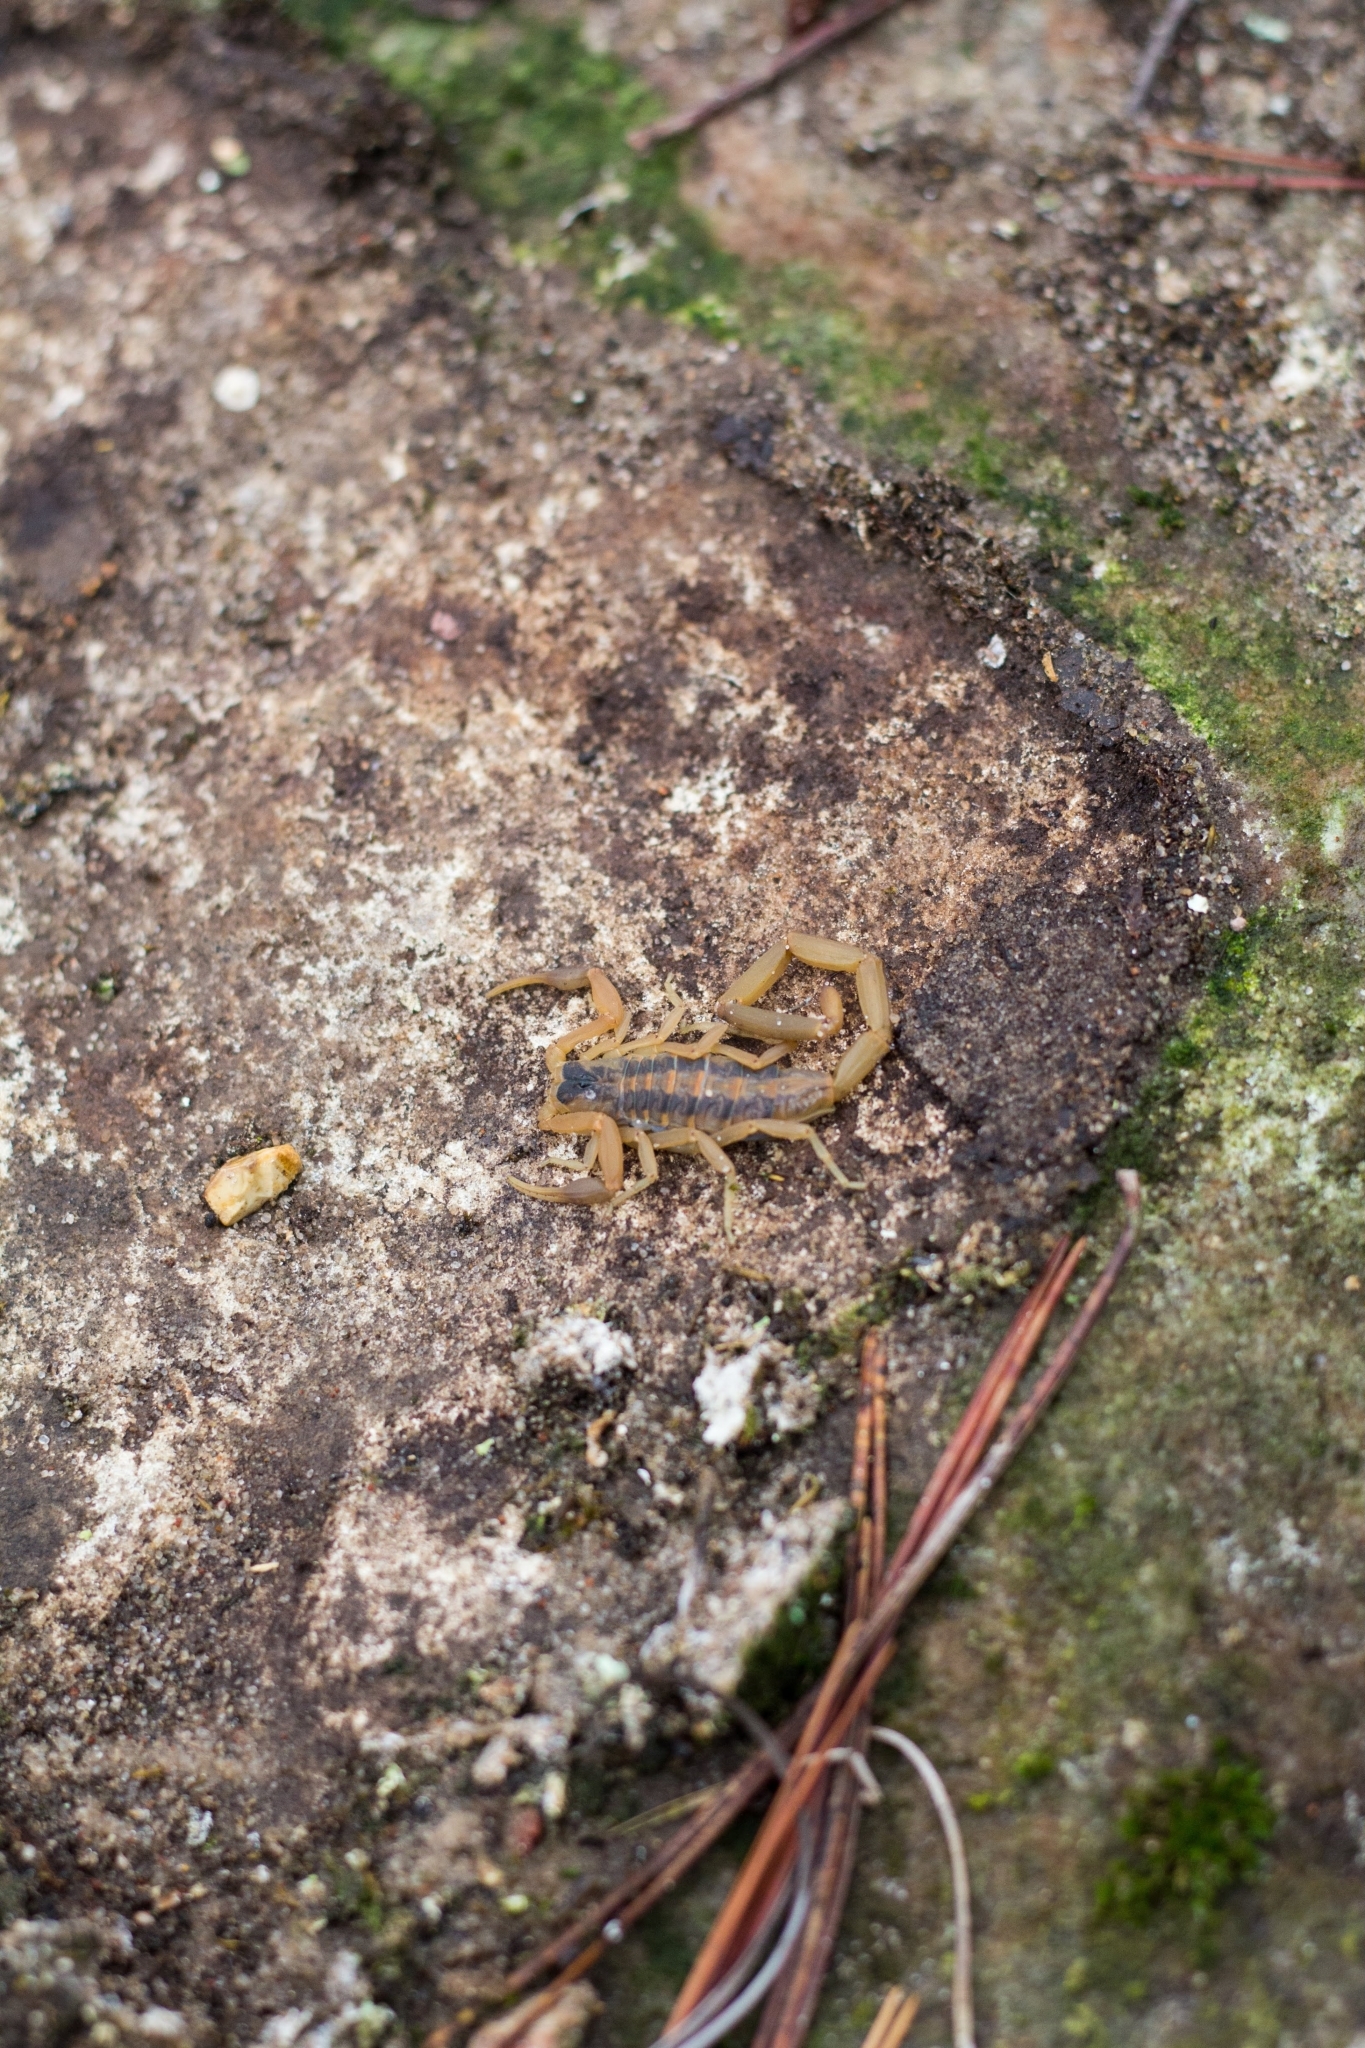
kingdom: Animalia
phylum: Arthropoda
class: Arachnida
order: Scorpiones
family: Buthidae
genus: Centruroides
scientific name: Centruroides vittatus
